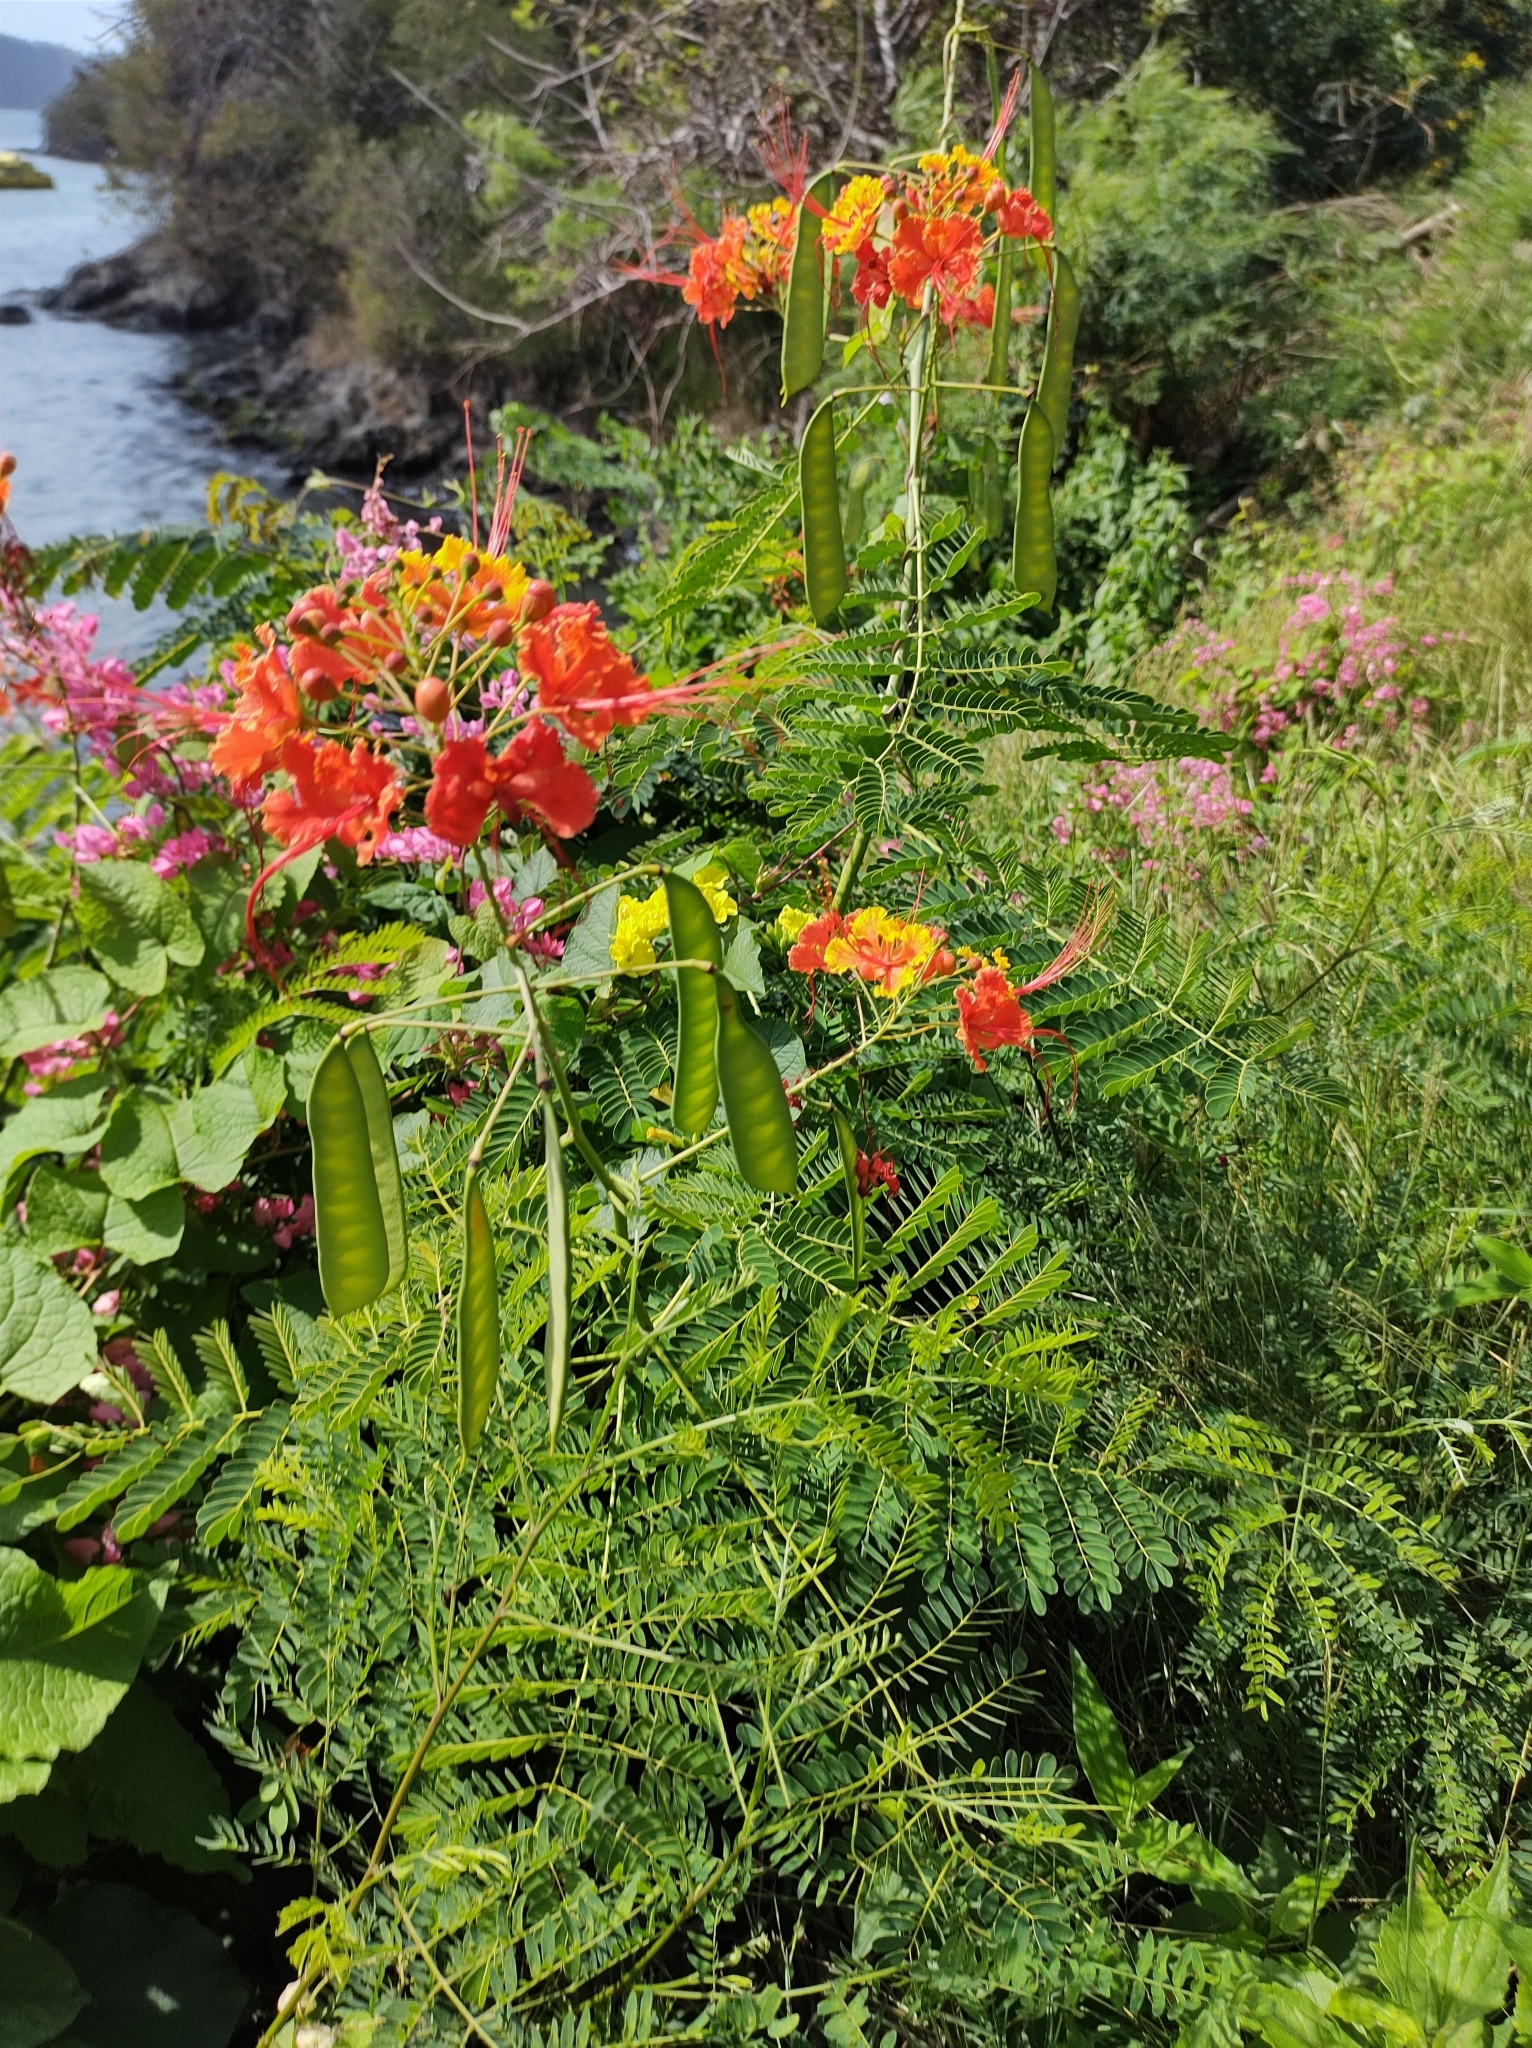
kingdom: Plantae
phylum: Tracheophyta
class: Magnoliopsida
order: Fabales
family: Fabaceae
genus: Caesalpinia
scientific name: Caesalpinia pulcherrima
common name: Pride-of-barbados
